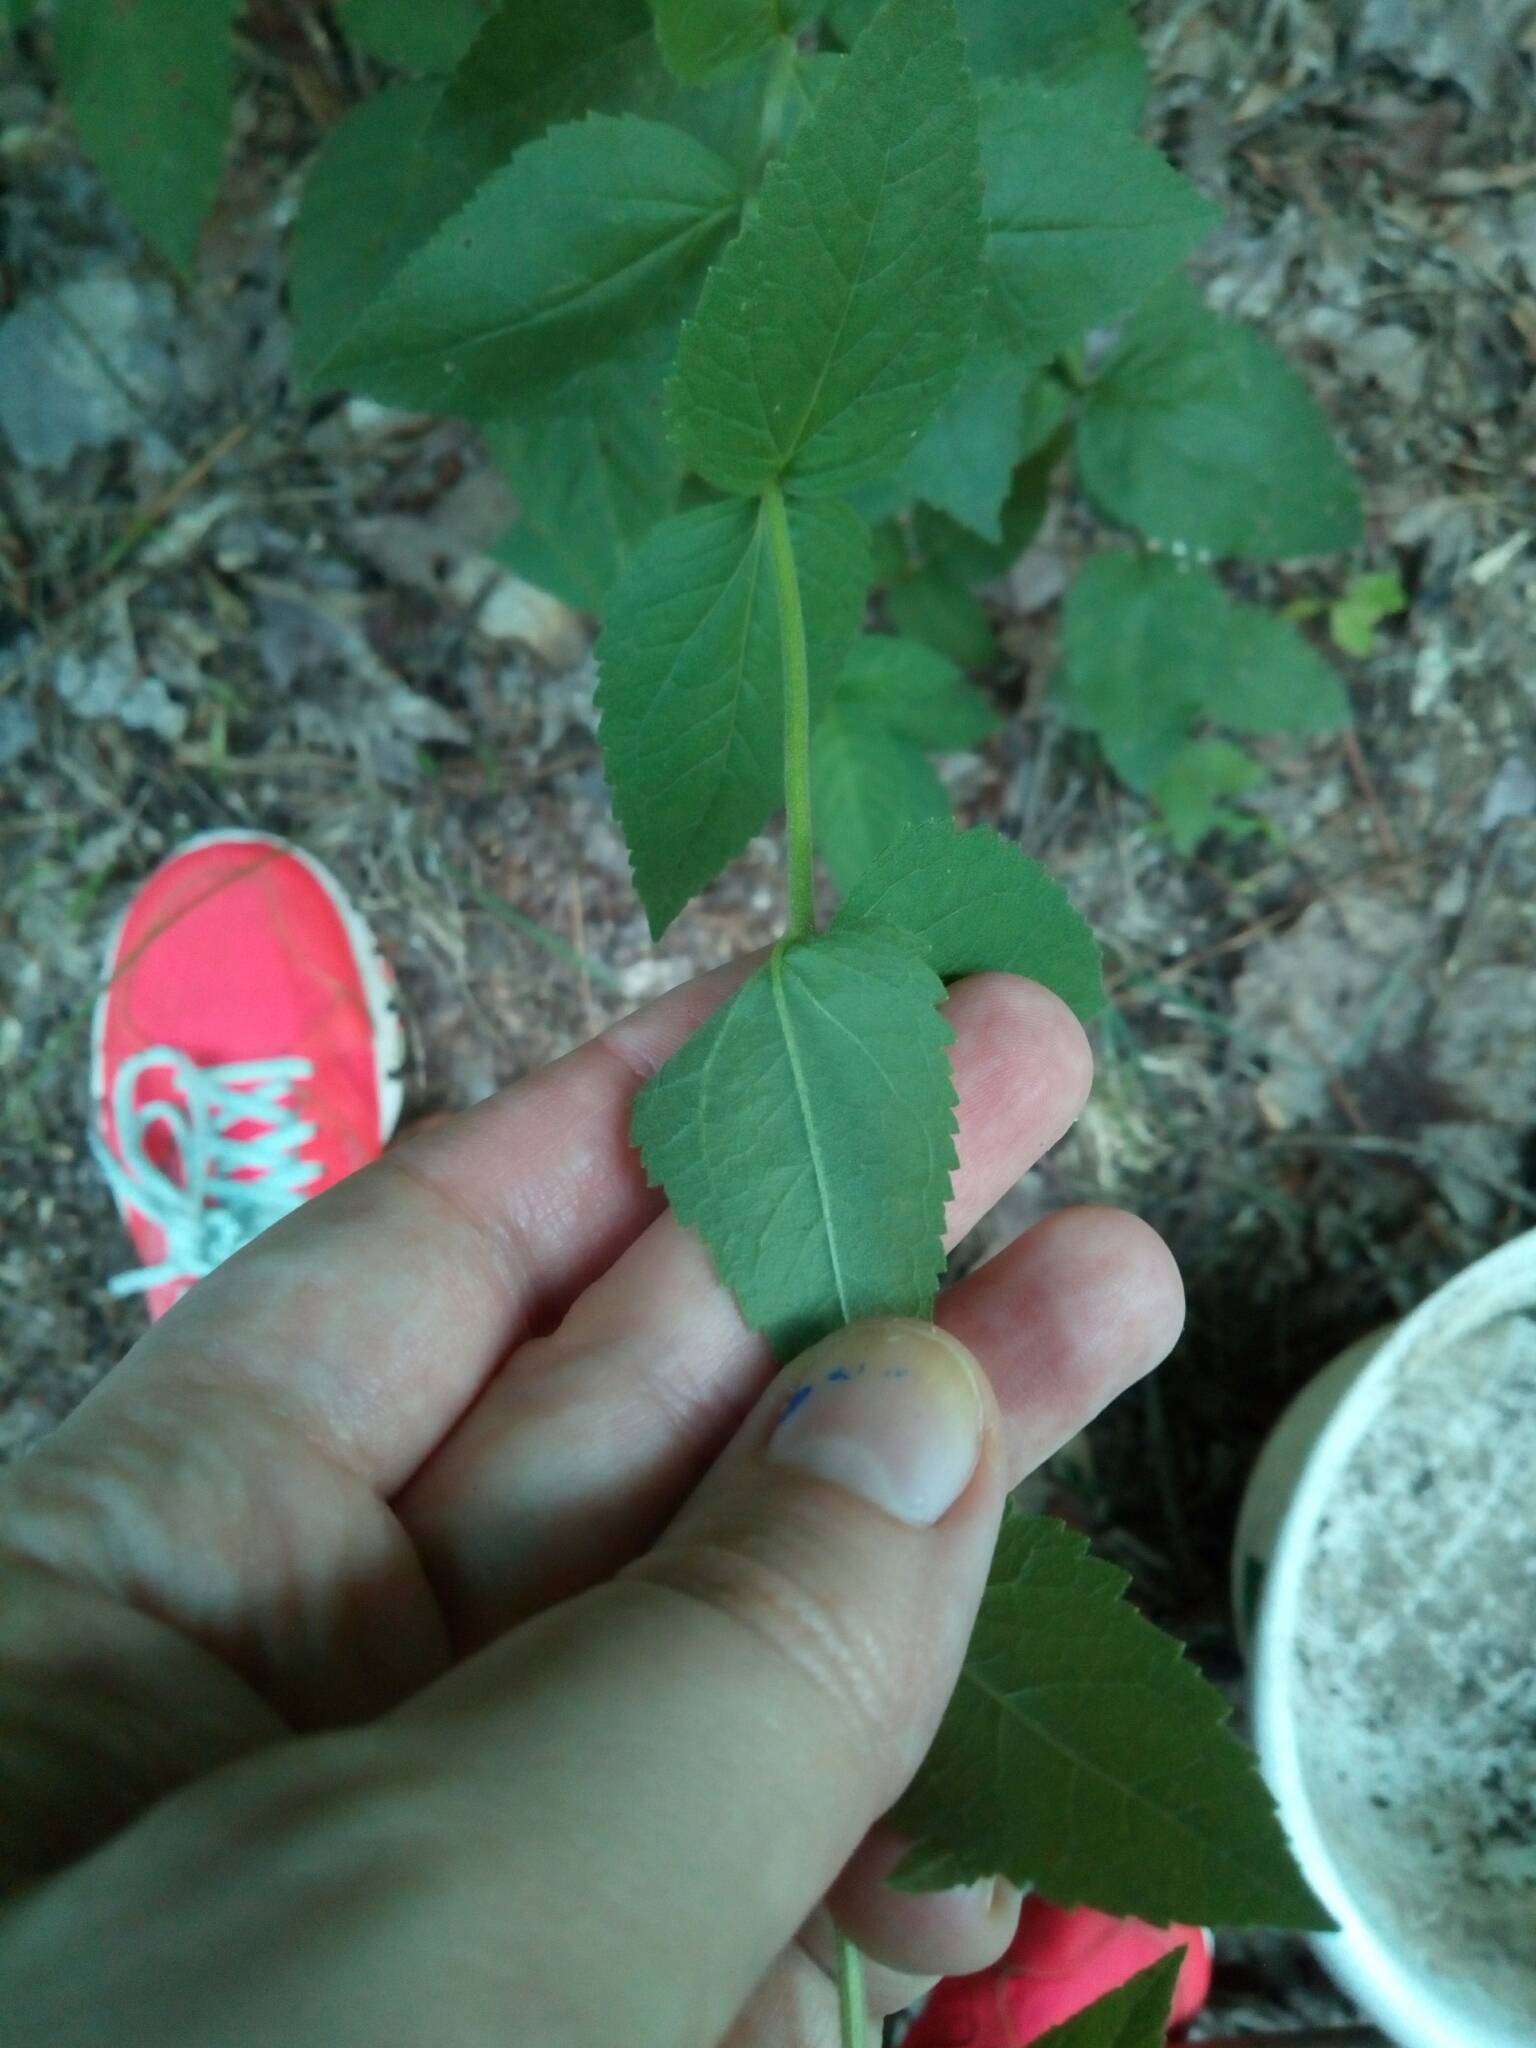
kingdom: Plantae
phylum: Tracheophyta
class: Magnoliopsida
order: Asterales
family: Asteraceae
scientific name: Asteraceae
